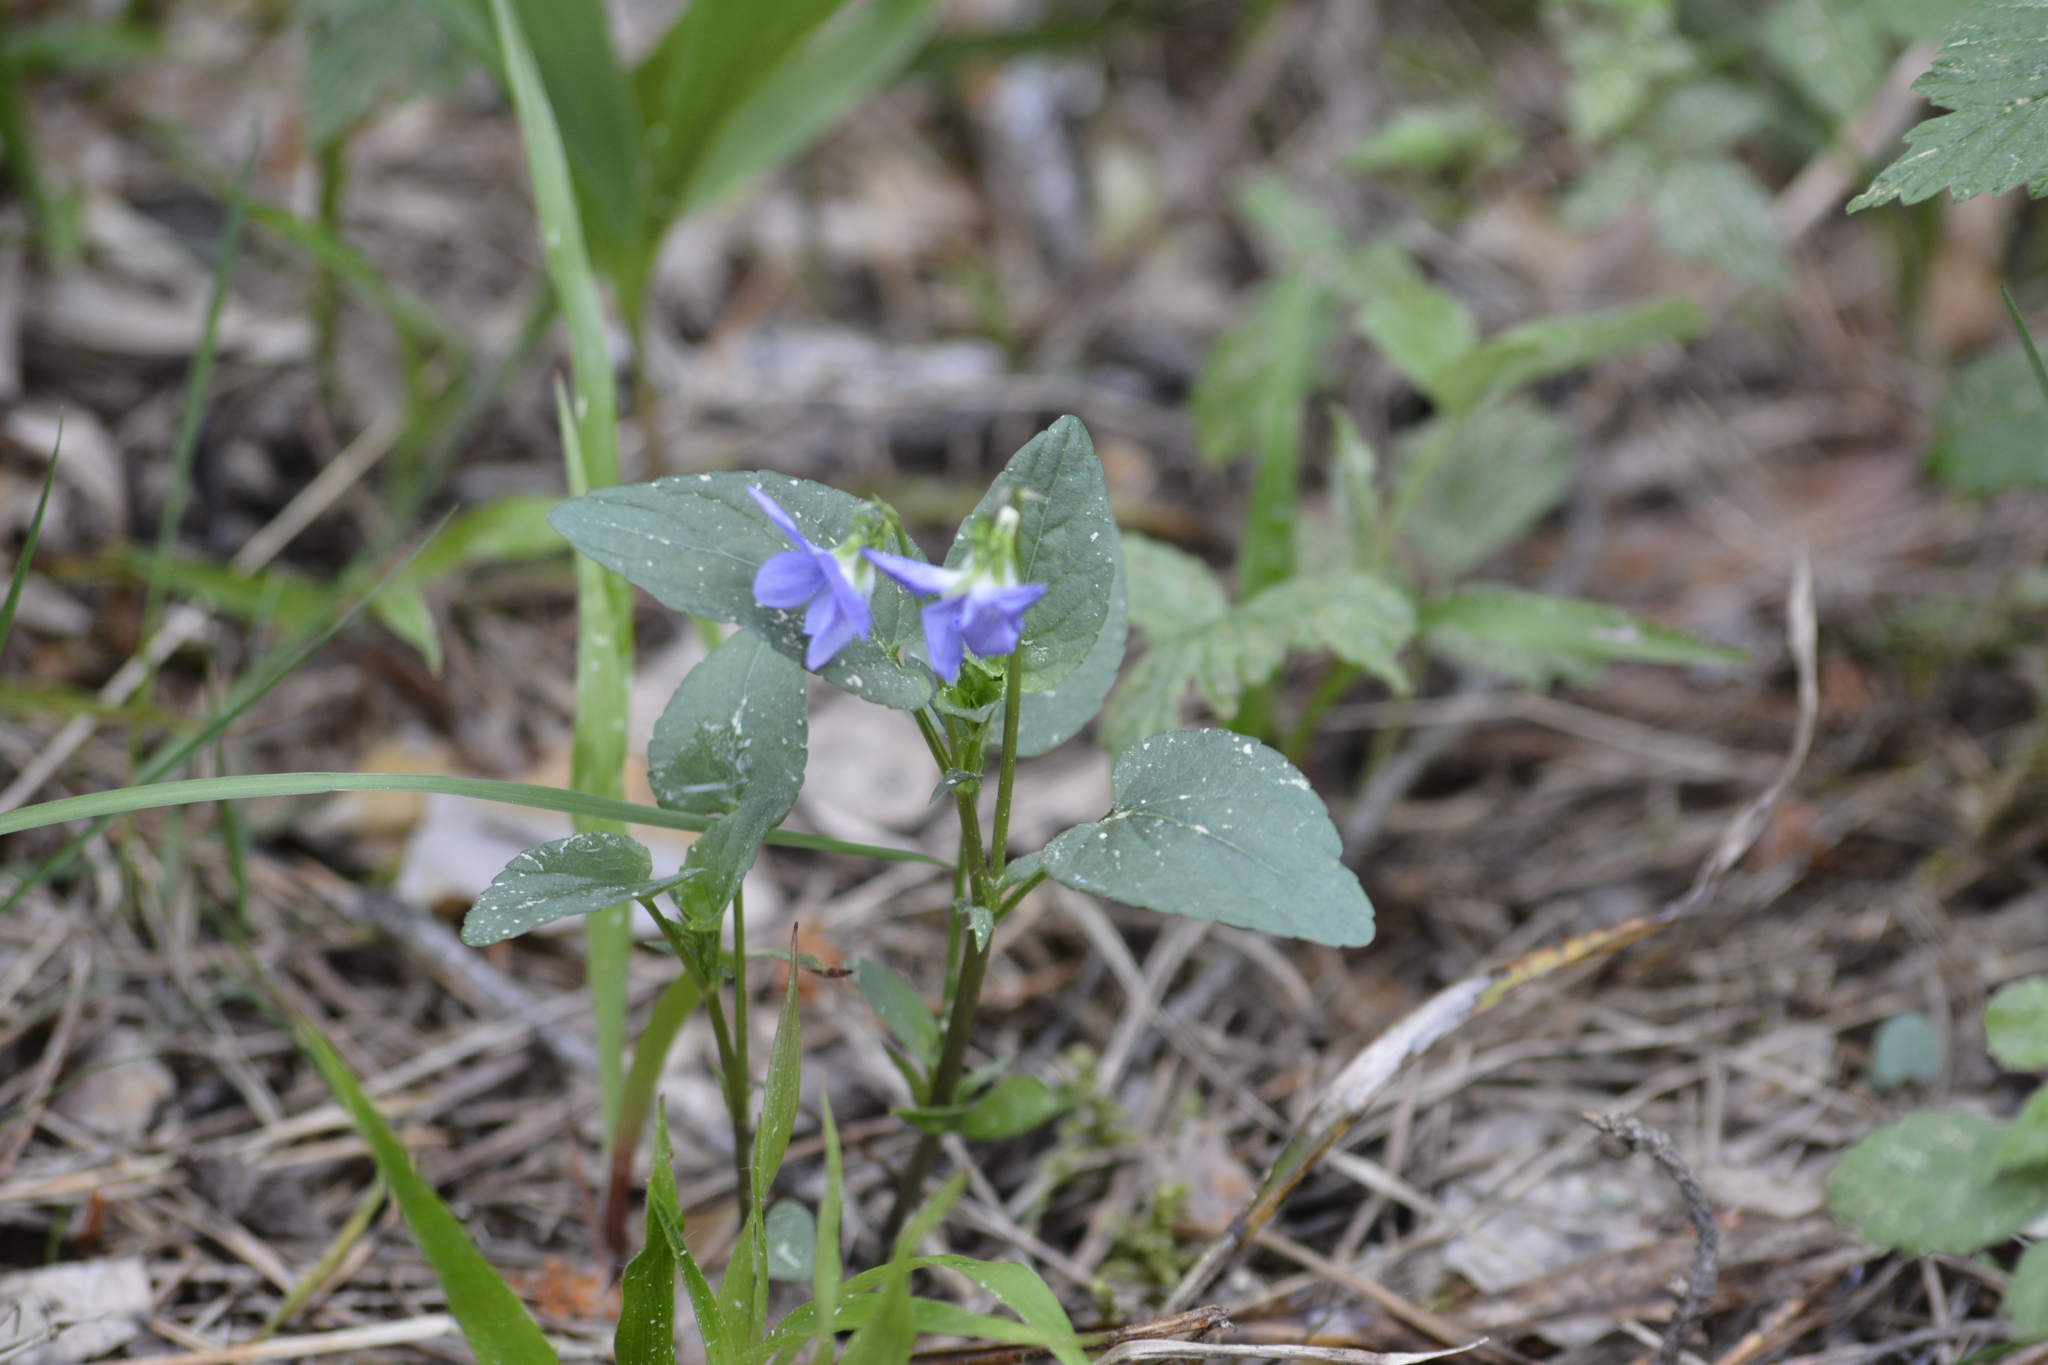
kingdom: Plantae
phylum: Tracheophyta
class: Magnoliopsida
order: Malpighiales
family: Violaceae
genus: Viola
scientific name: Viola
